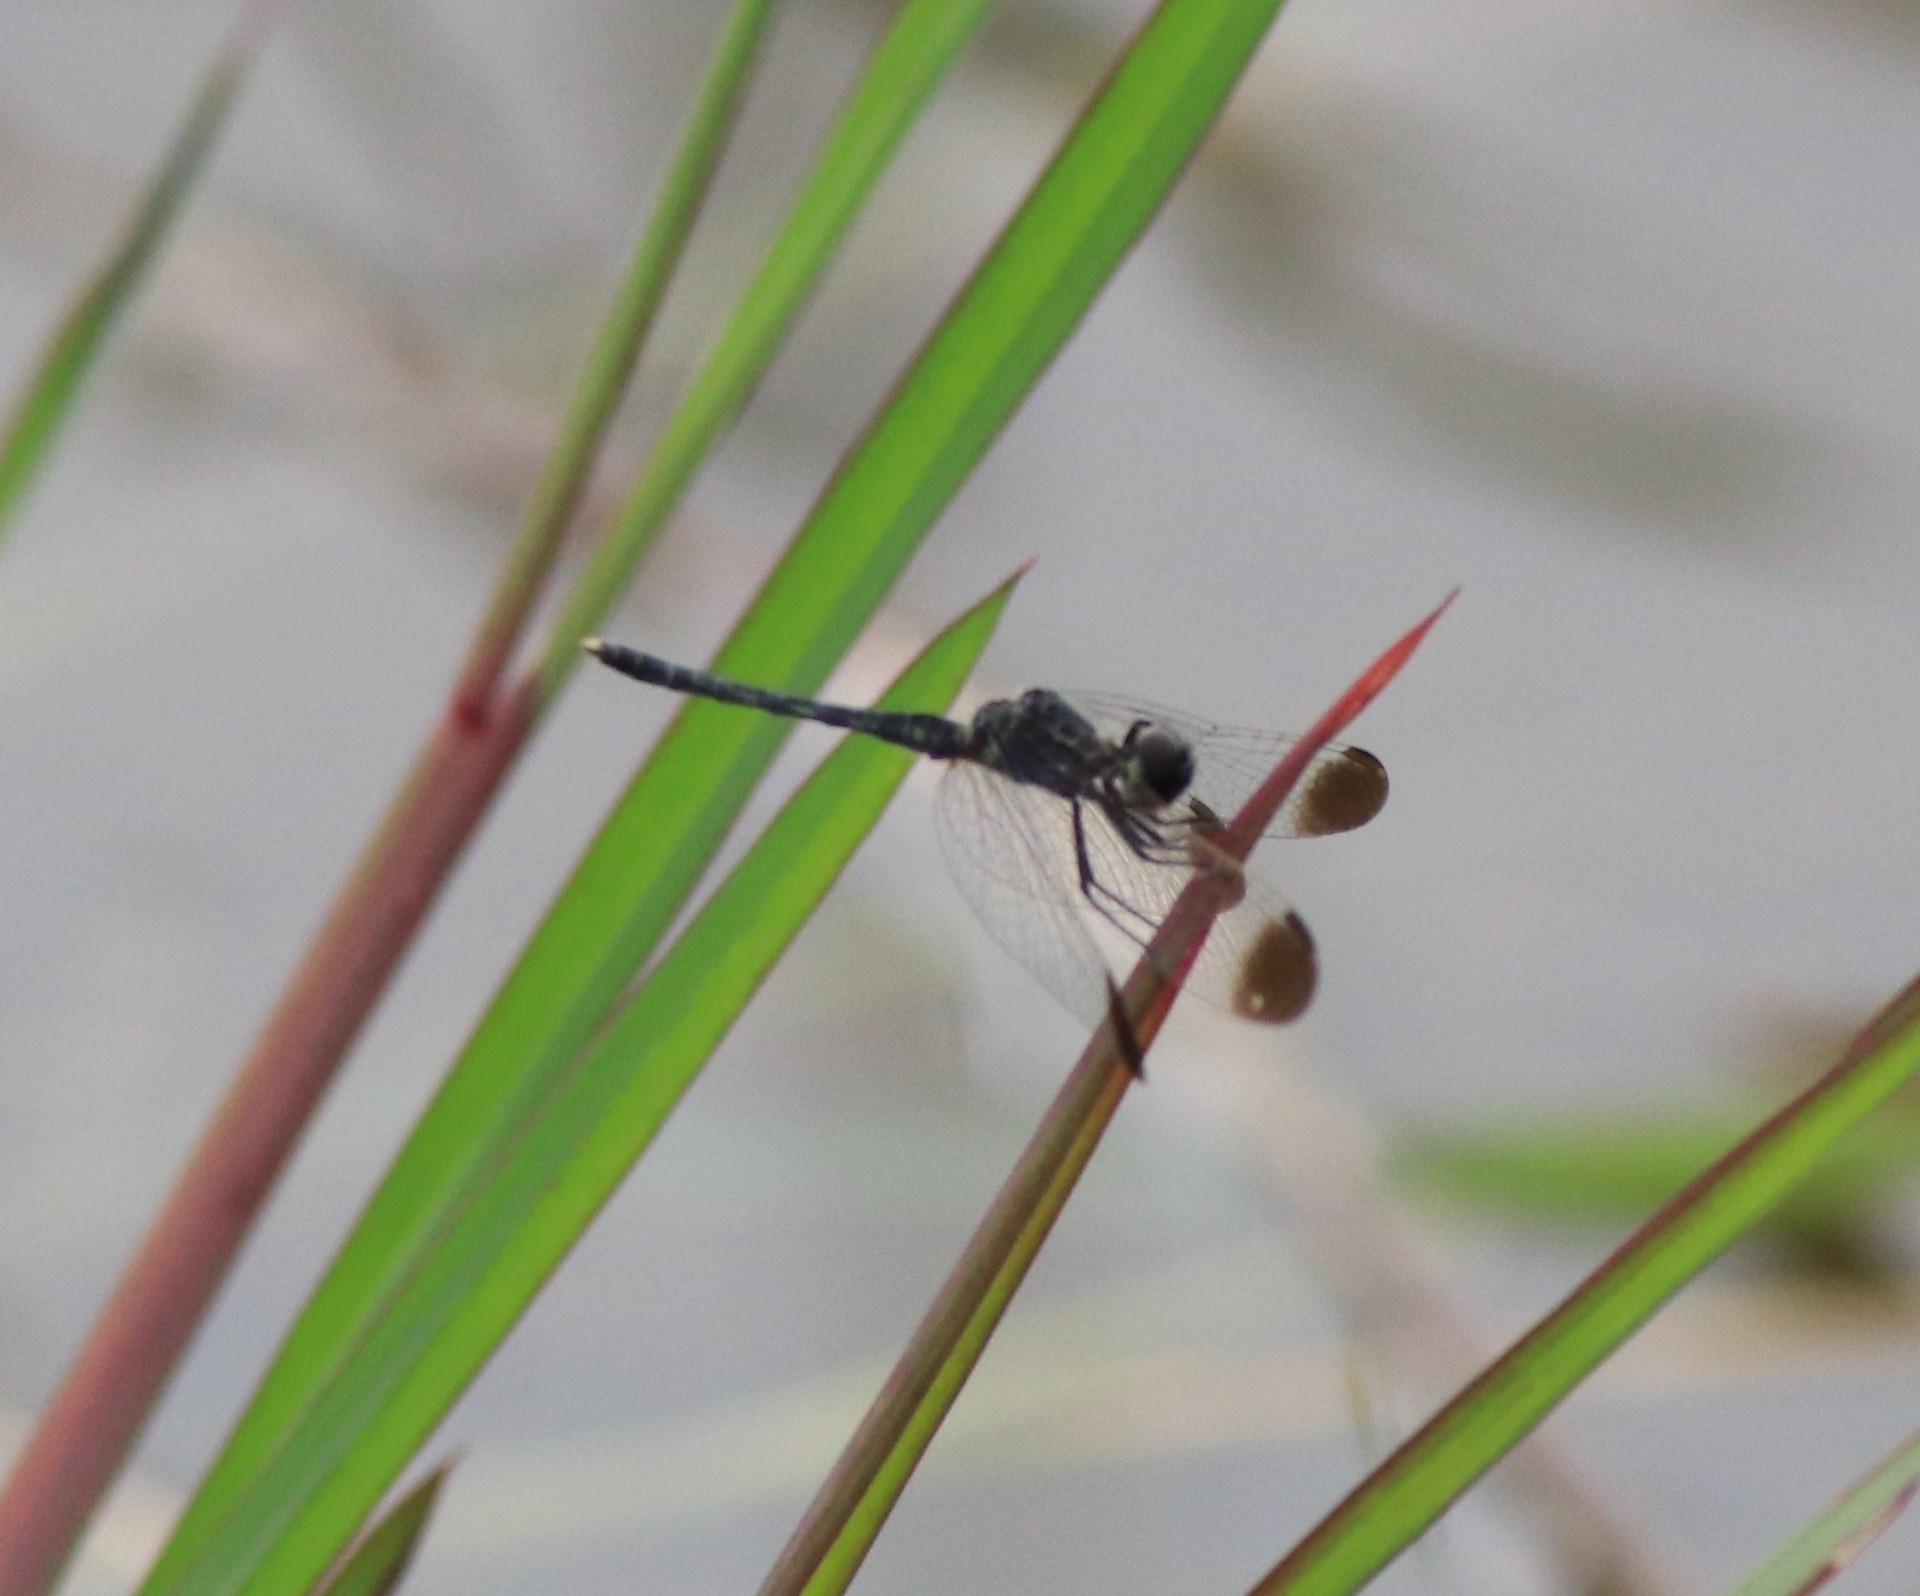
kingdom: Animalia
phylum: Arthropoda
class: Insecta
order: Odonata
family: Libellulidae
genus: Diplacodes
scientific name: Diplacodes nebulosa
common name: Black-tipped percher
